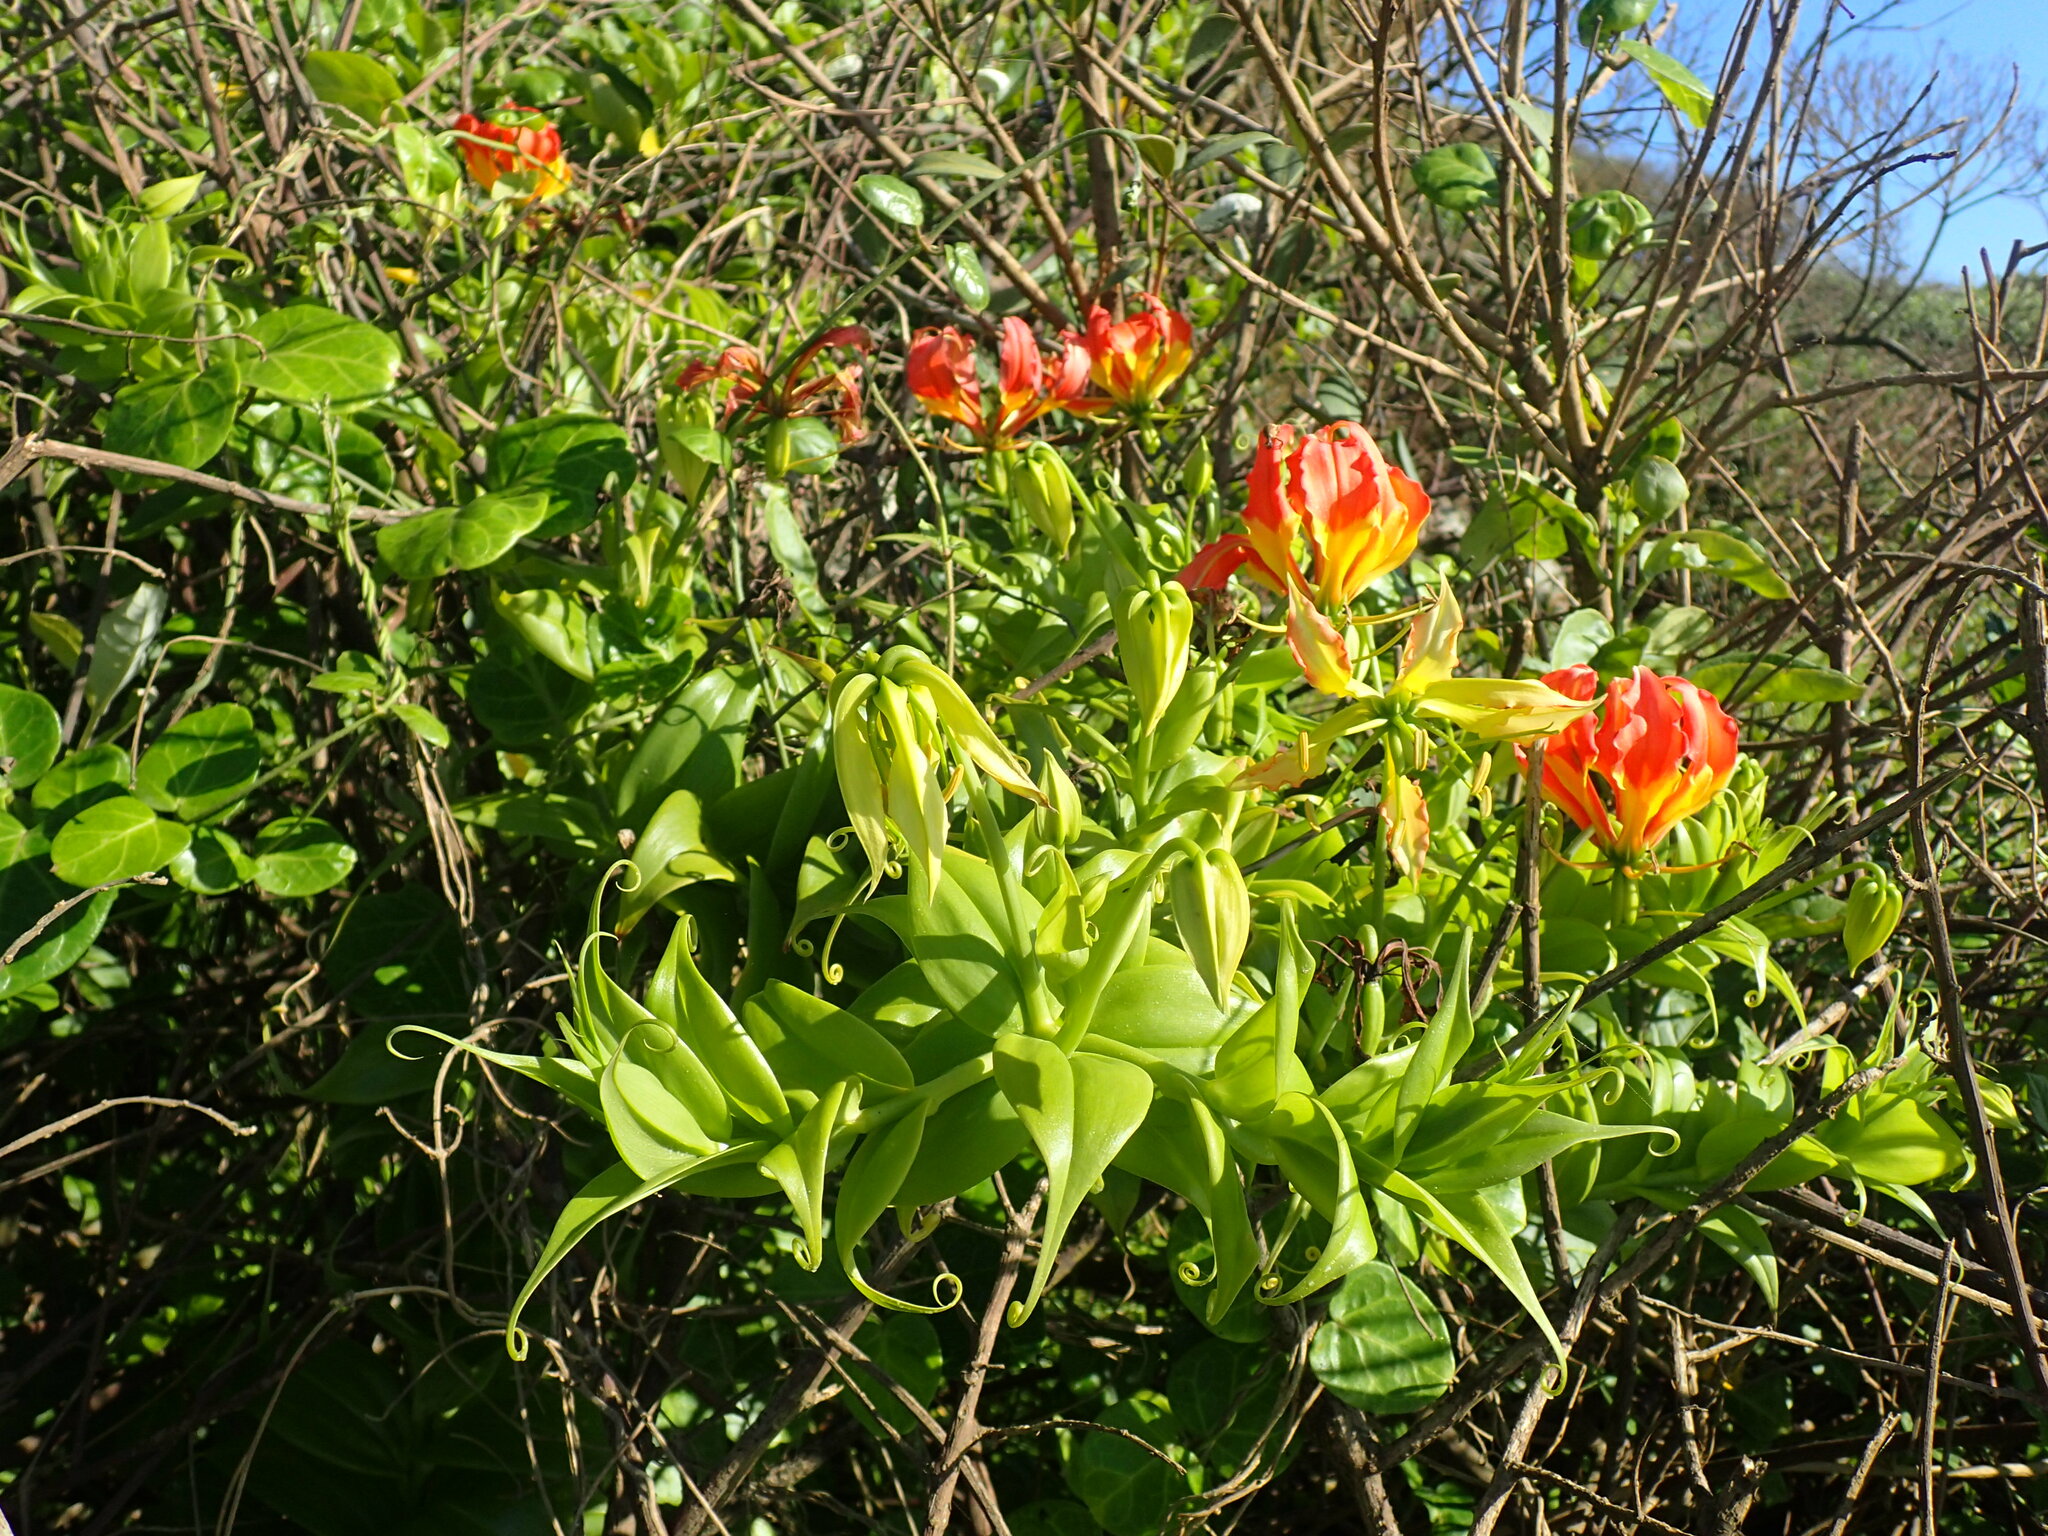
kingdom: Plantae
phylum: Tracheophyta
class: Liliopsida
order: Liliales
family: Colchicaceae
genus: Gloriosa
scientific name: Gloriosa superba
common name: Flame lily
